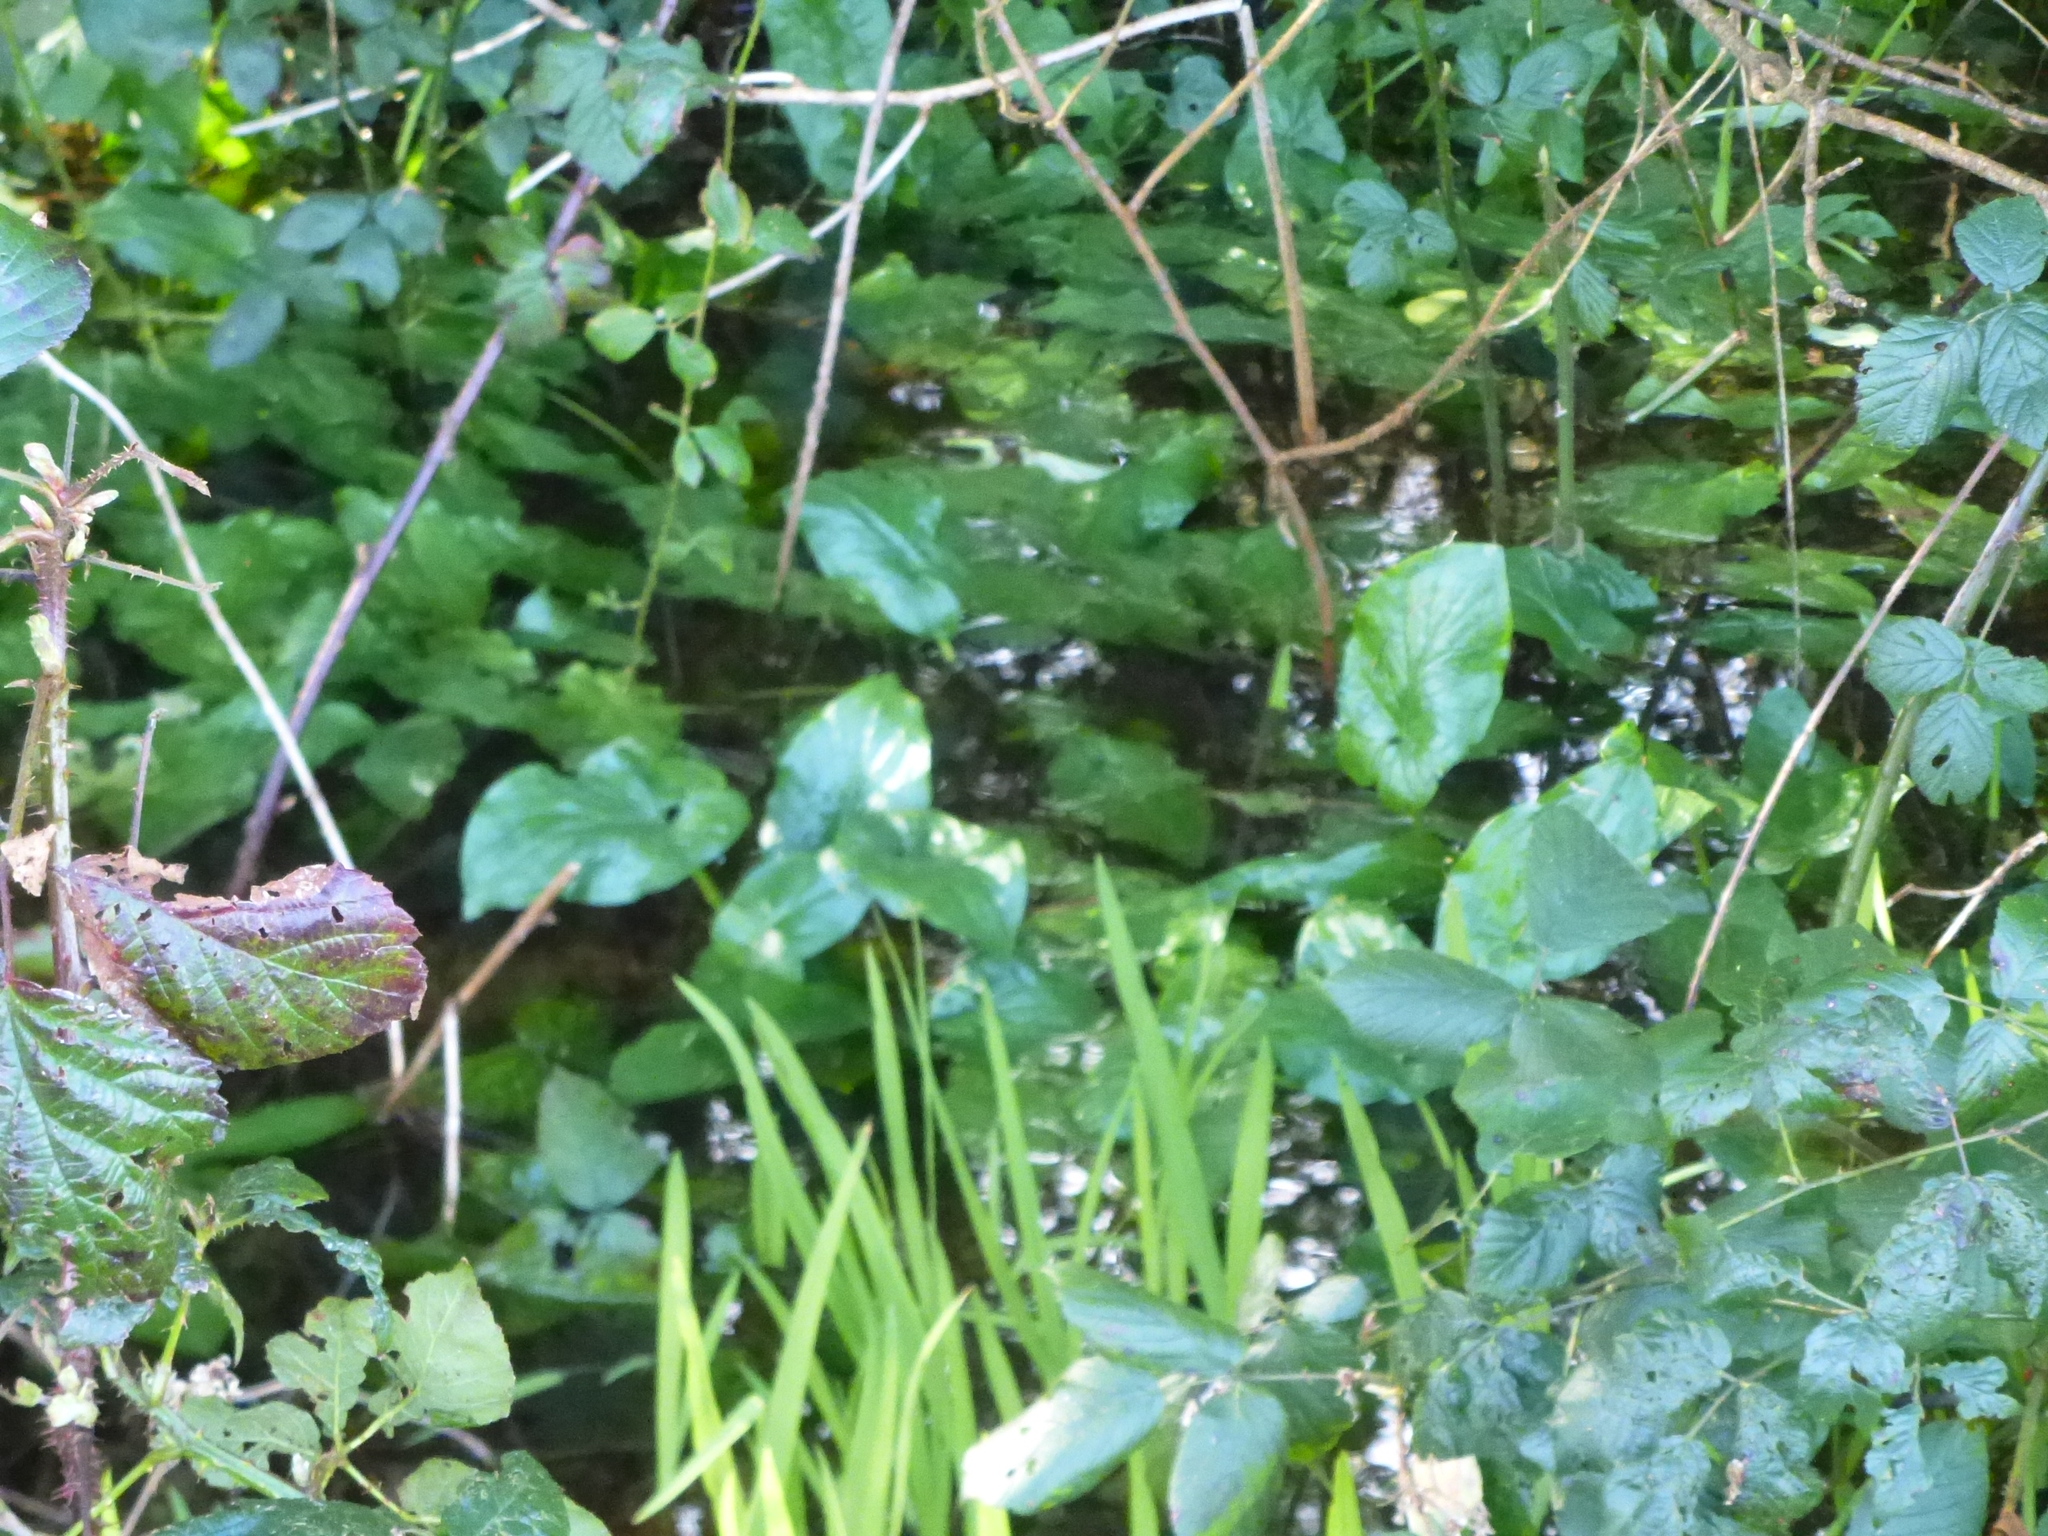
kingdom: Plantae
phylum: Tracheophyta
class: Liliopsida
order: Alismatales
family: Araceae
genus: Arum
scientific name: Arum maculatum
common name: Lords-and-ladies
